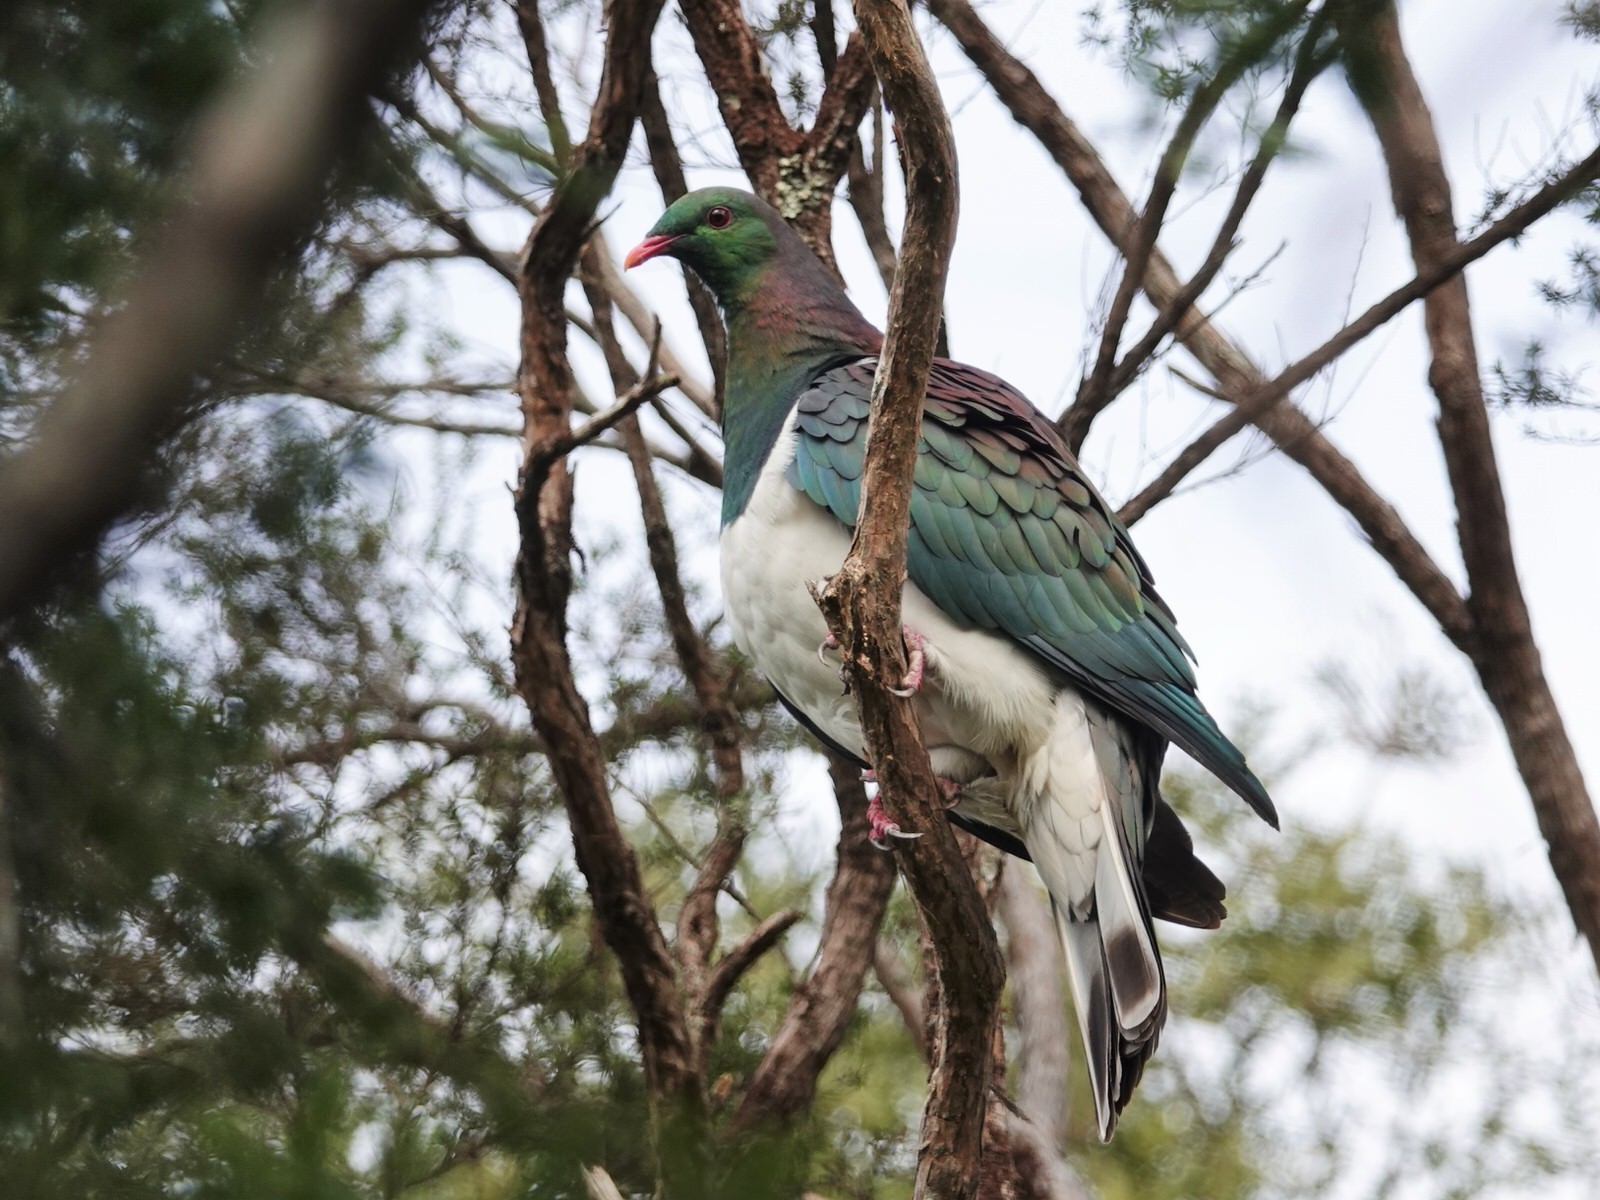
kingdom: Animalia
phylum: Chordata
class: Aves
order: Columbiformes
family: Columbidae
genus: Hemiphaga
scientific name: Hemiphaga novaeseelandiae
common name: New zealand pigeon
